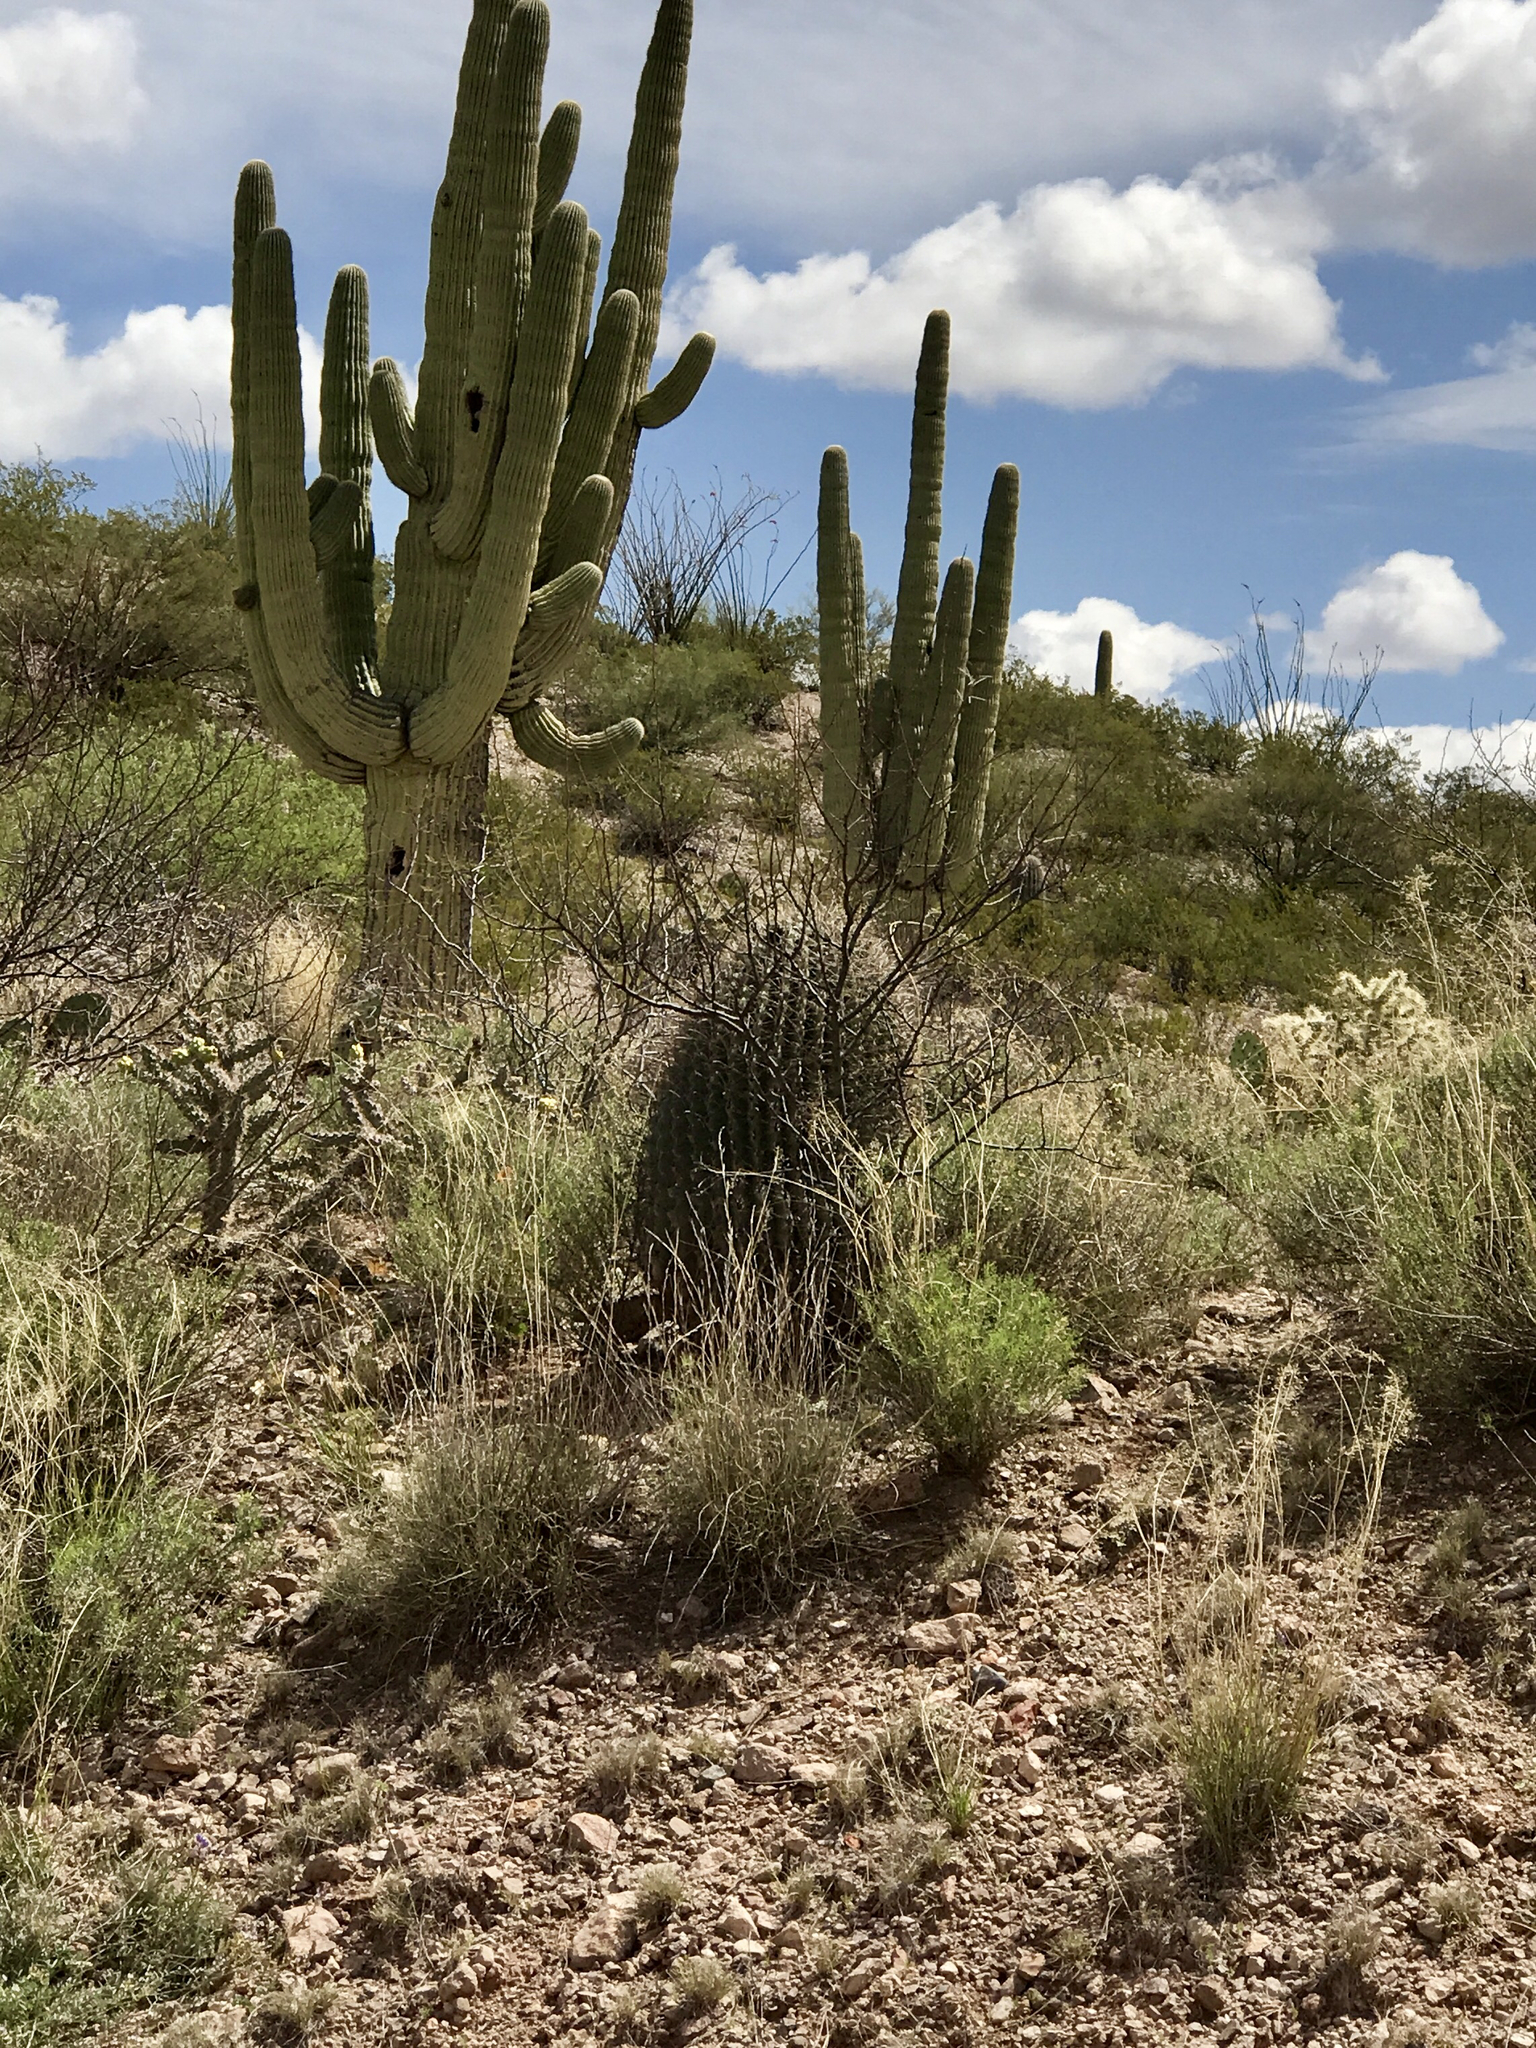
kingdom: Plantae
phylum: Tracheophyta
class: Magnoliopsida
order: Caryophyllales
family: Cactaceae
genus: Ferocactus
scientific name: Ferocactus wislizeni
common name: Candy barrel cactus
